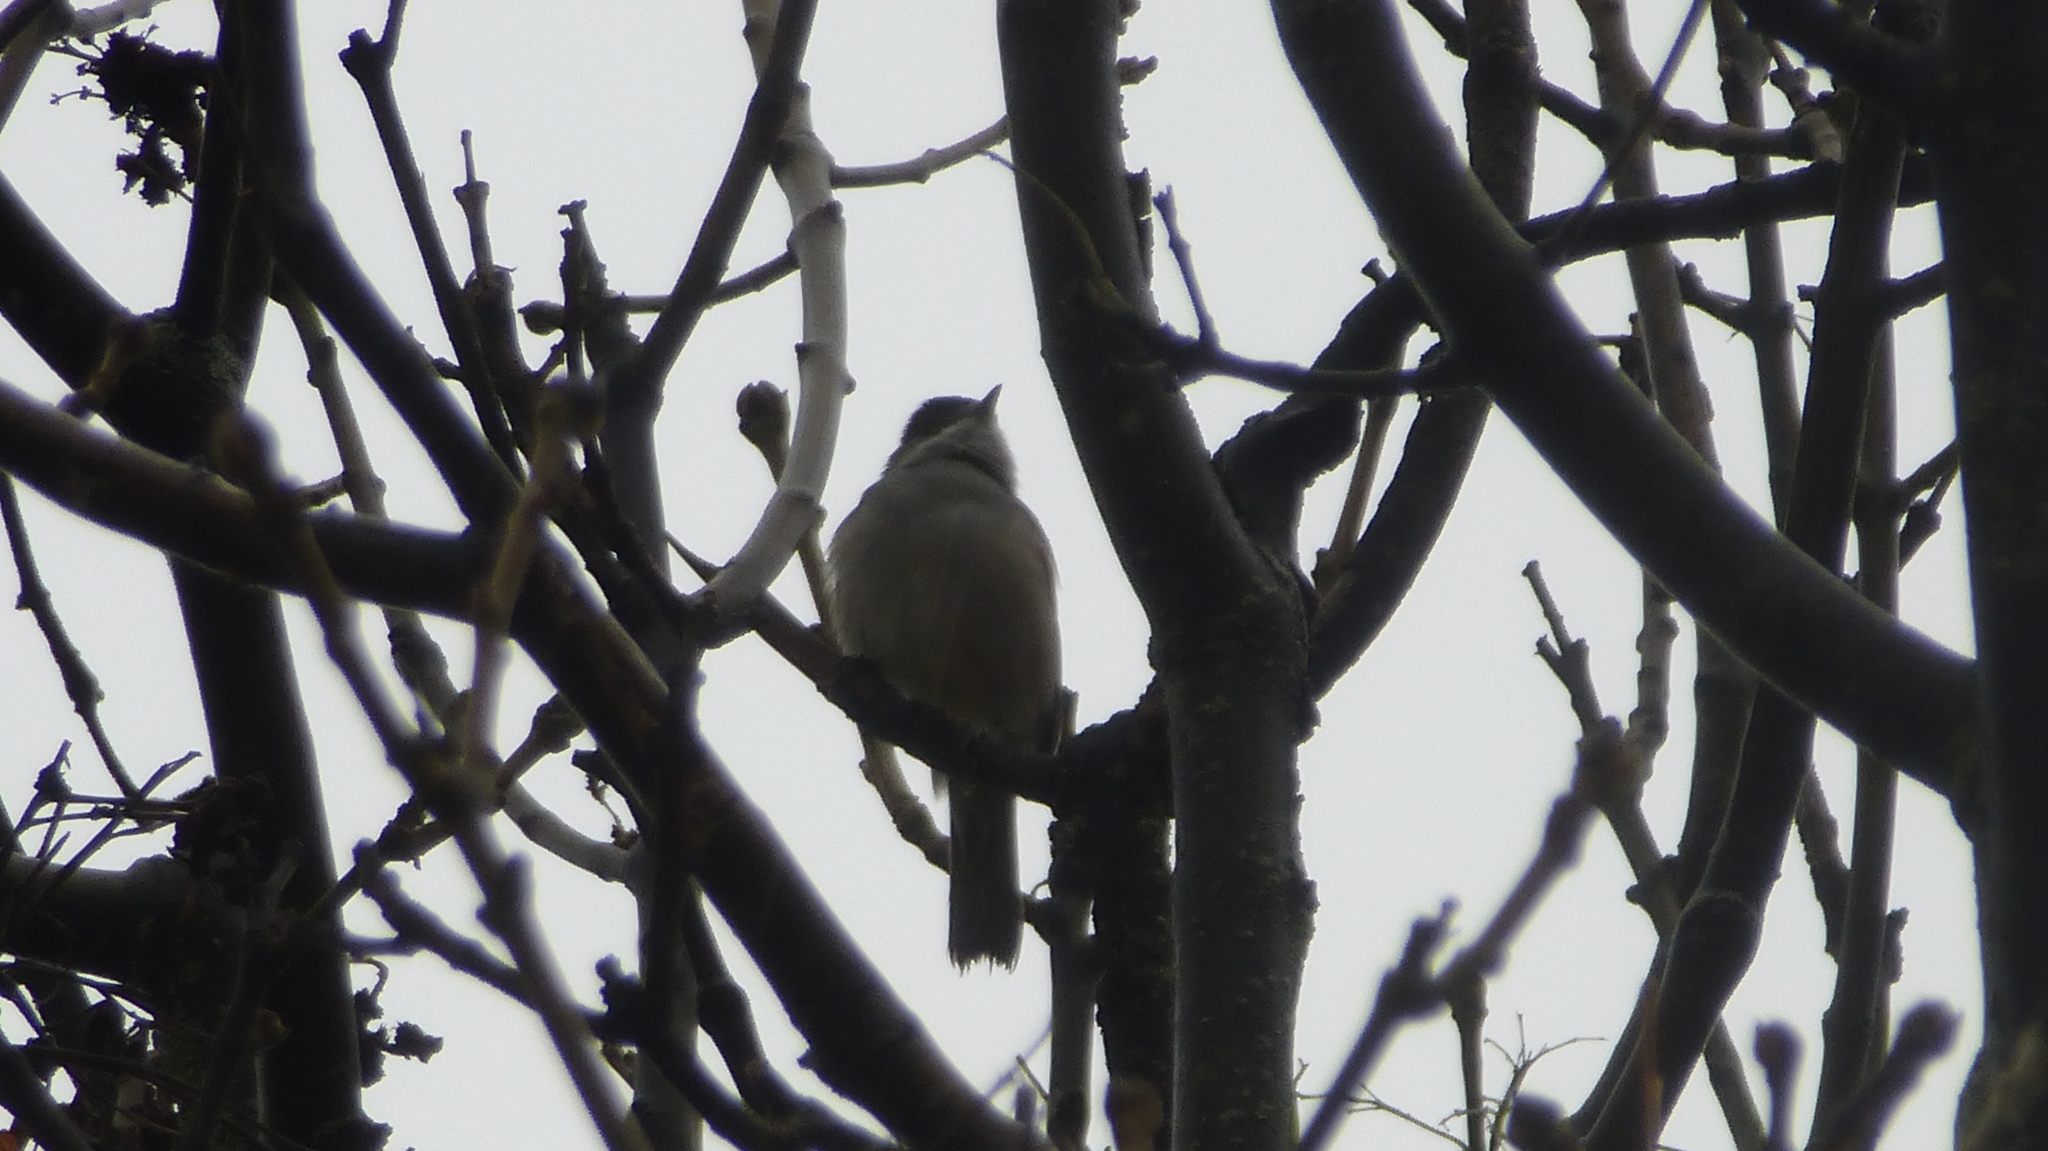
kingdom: Animalia
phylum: Chordata
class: Aves
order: Passeriformes
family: Sylviidae
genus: Sylvia
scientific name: Sylvia atricapilla
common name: Eurasian blackcap
